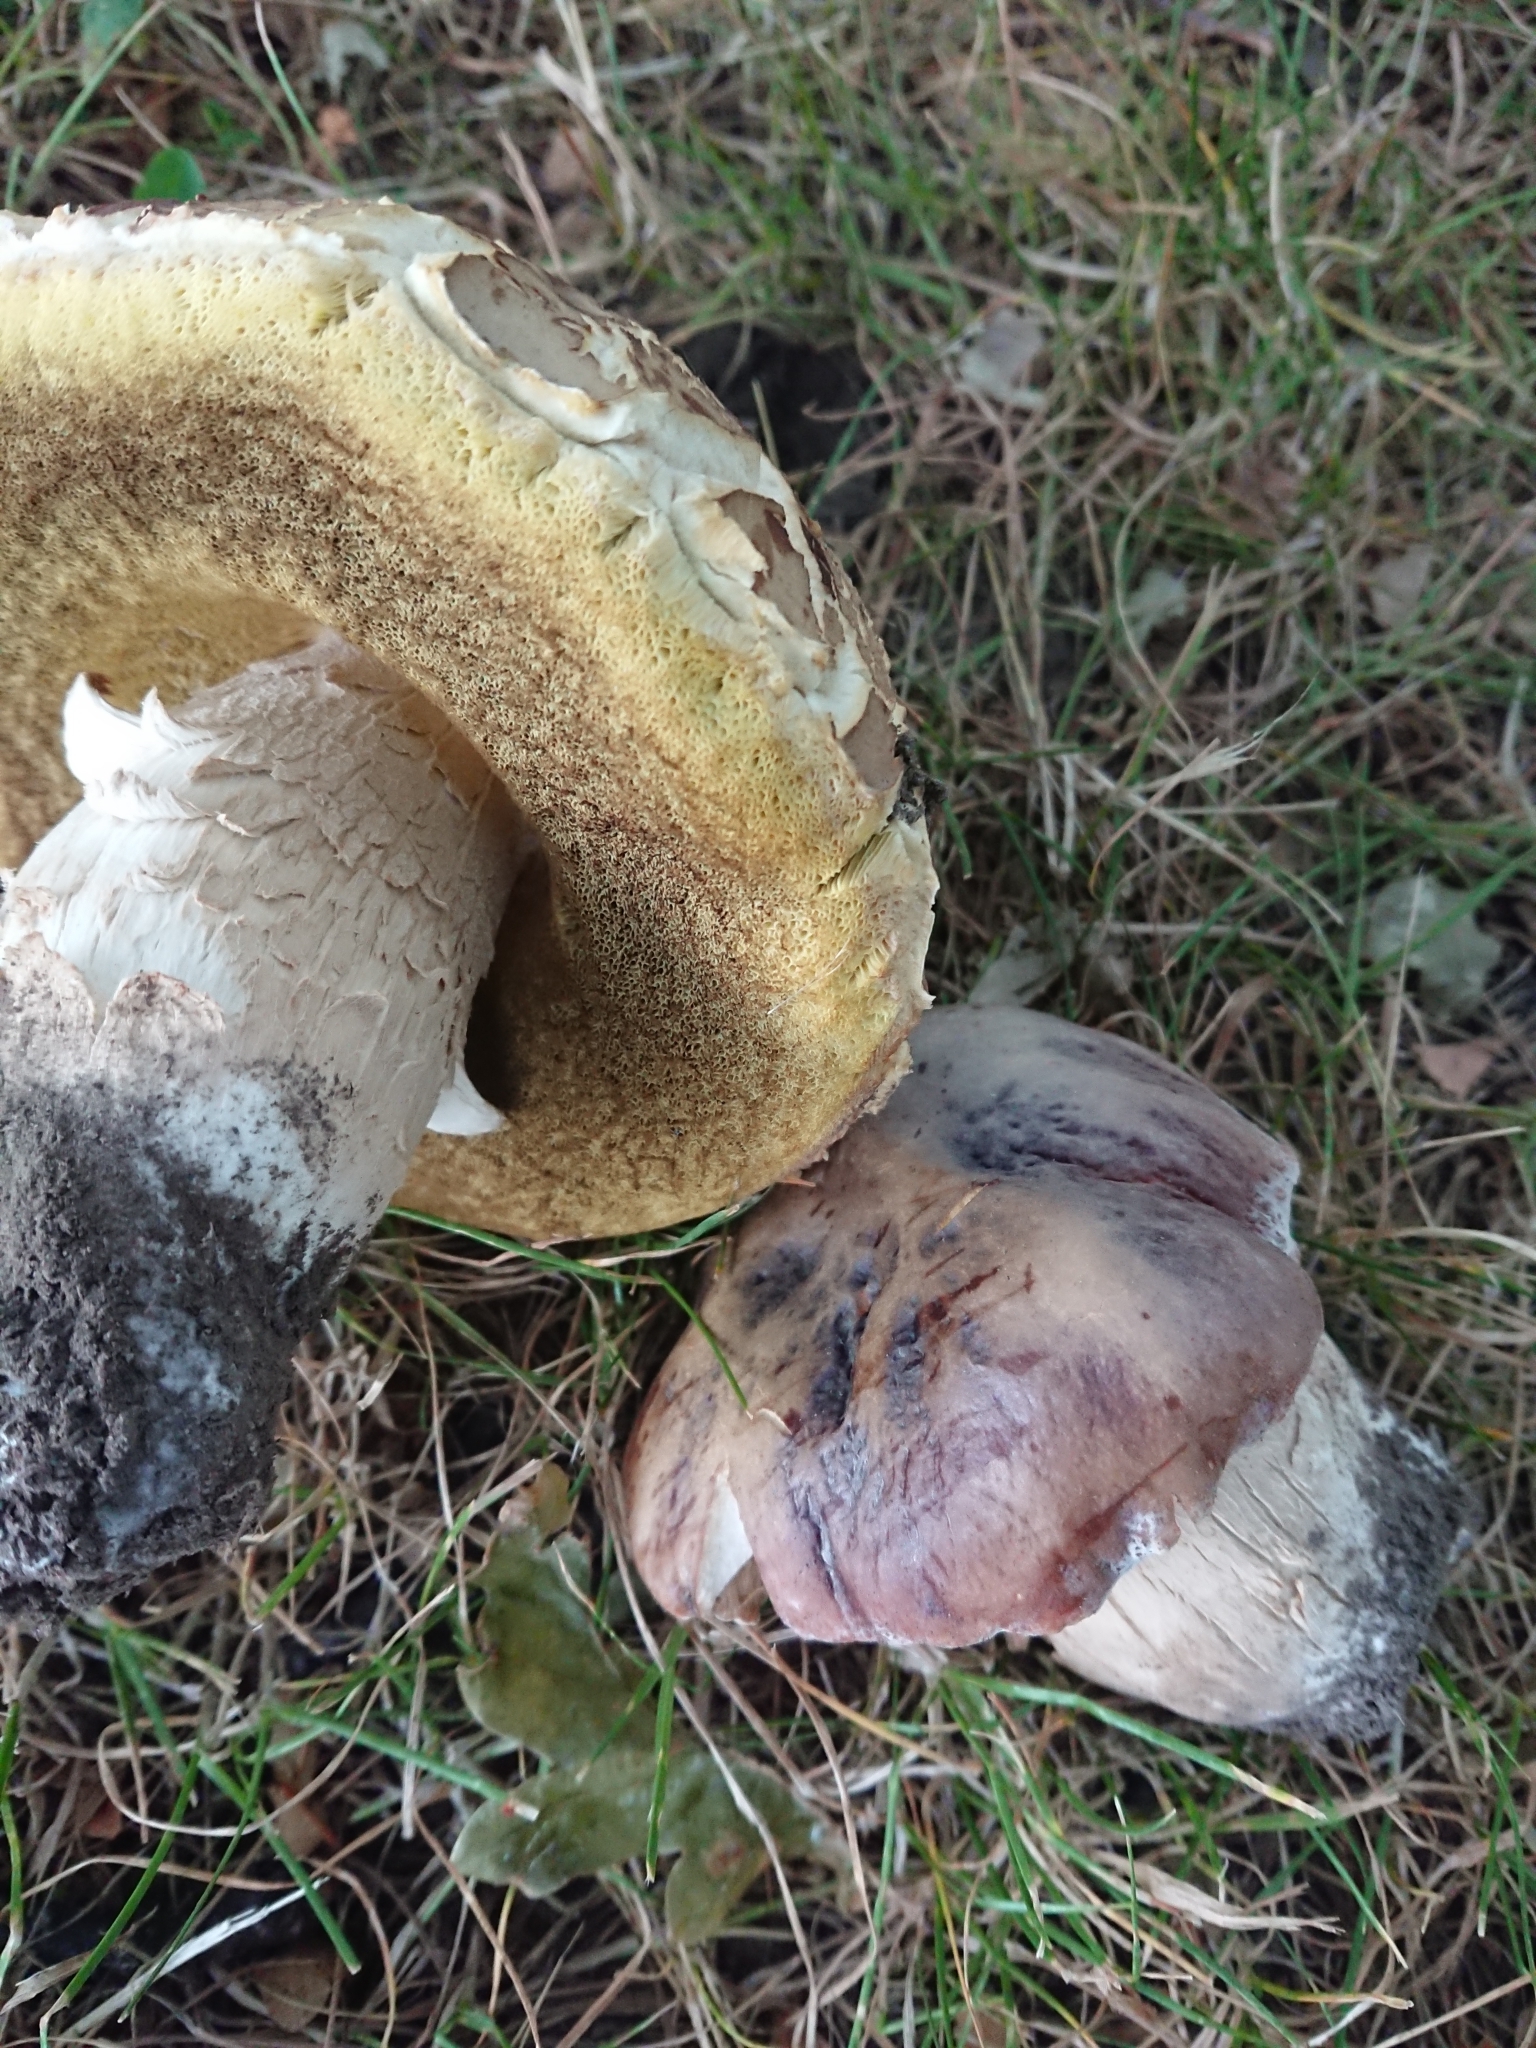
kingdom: Fungi
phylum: Basidiomycota
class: Agaricomycetes
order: Boletales
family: Boletaceae
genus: Boletus
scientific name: Boletus edulis
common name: Cep
